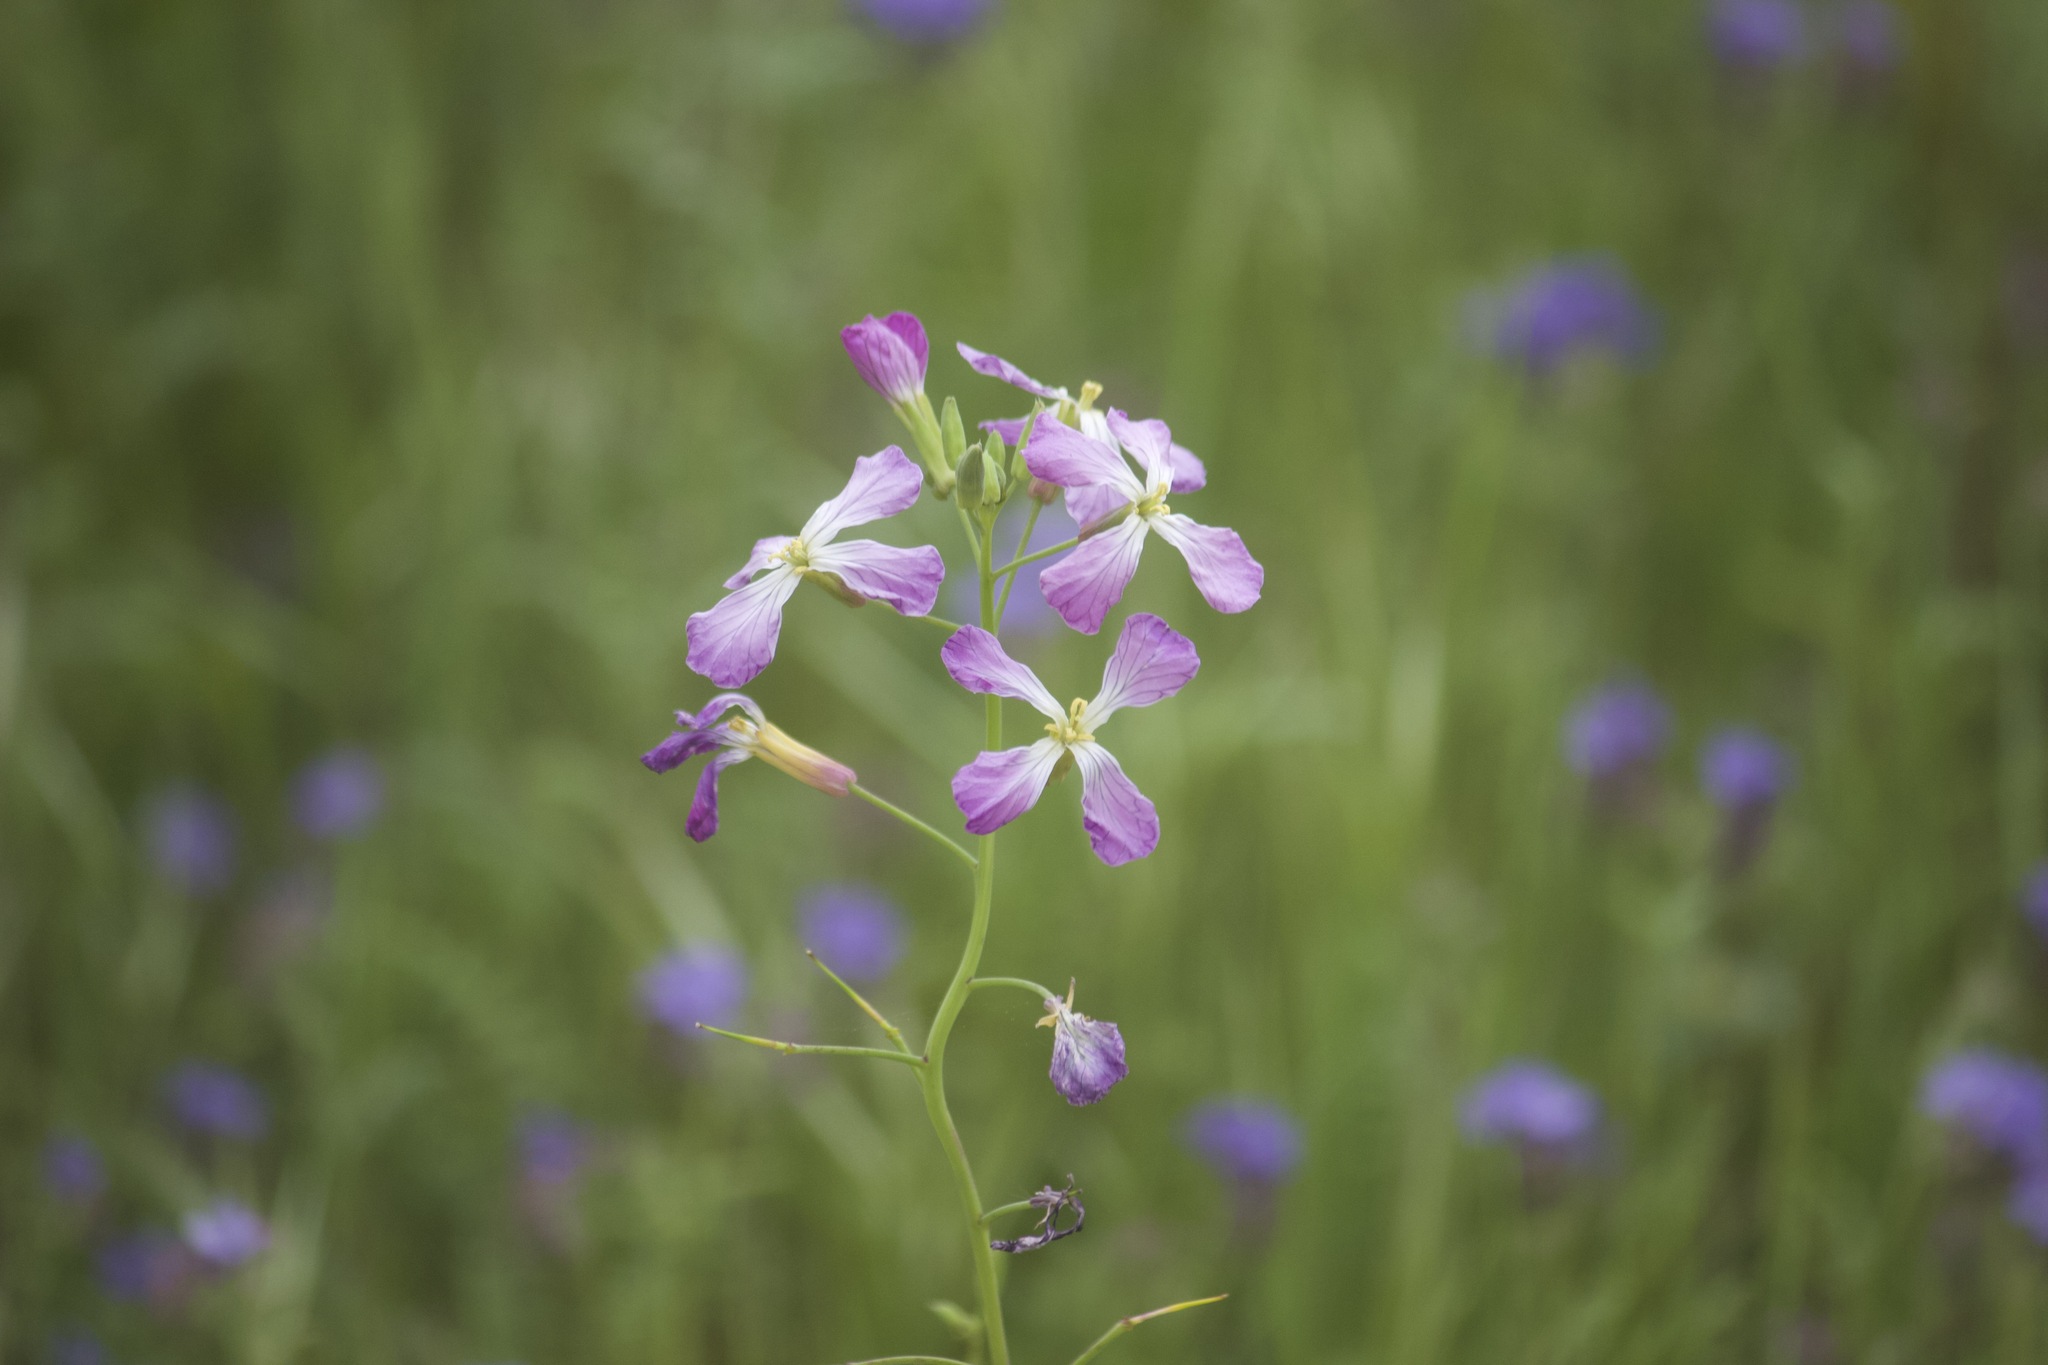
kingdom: Plantae
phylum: Tracheophyta
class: Magnoliopsida
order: Brassicales
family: Brassicaceae
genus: Raphanus
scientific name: Raphanus sativus
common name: Cultivated radish
